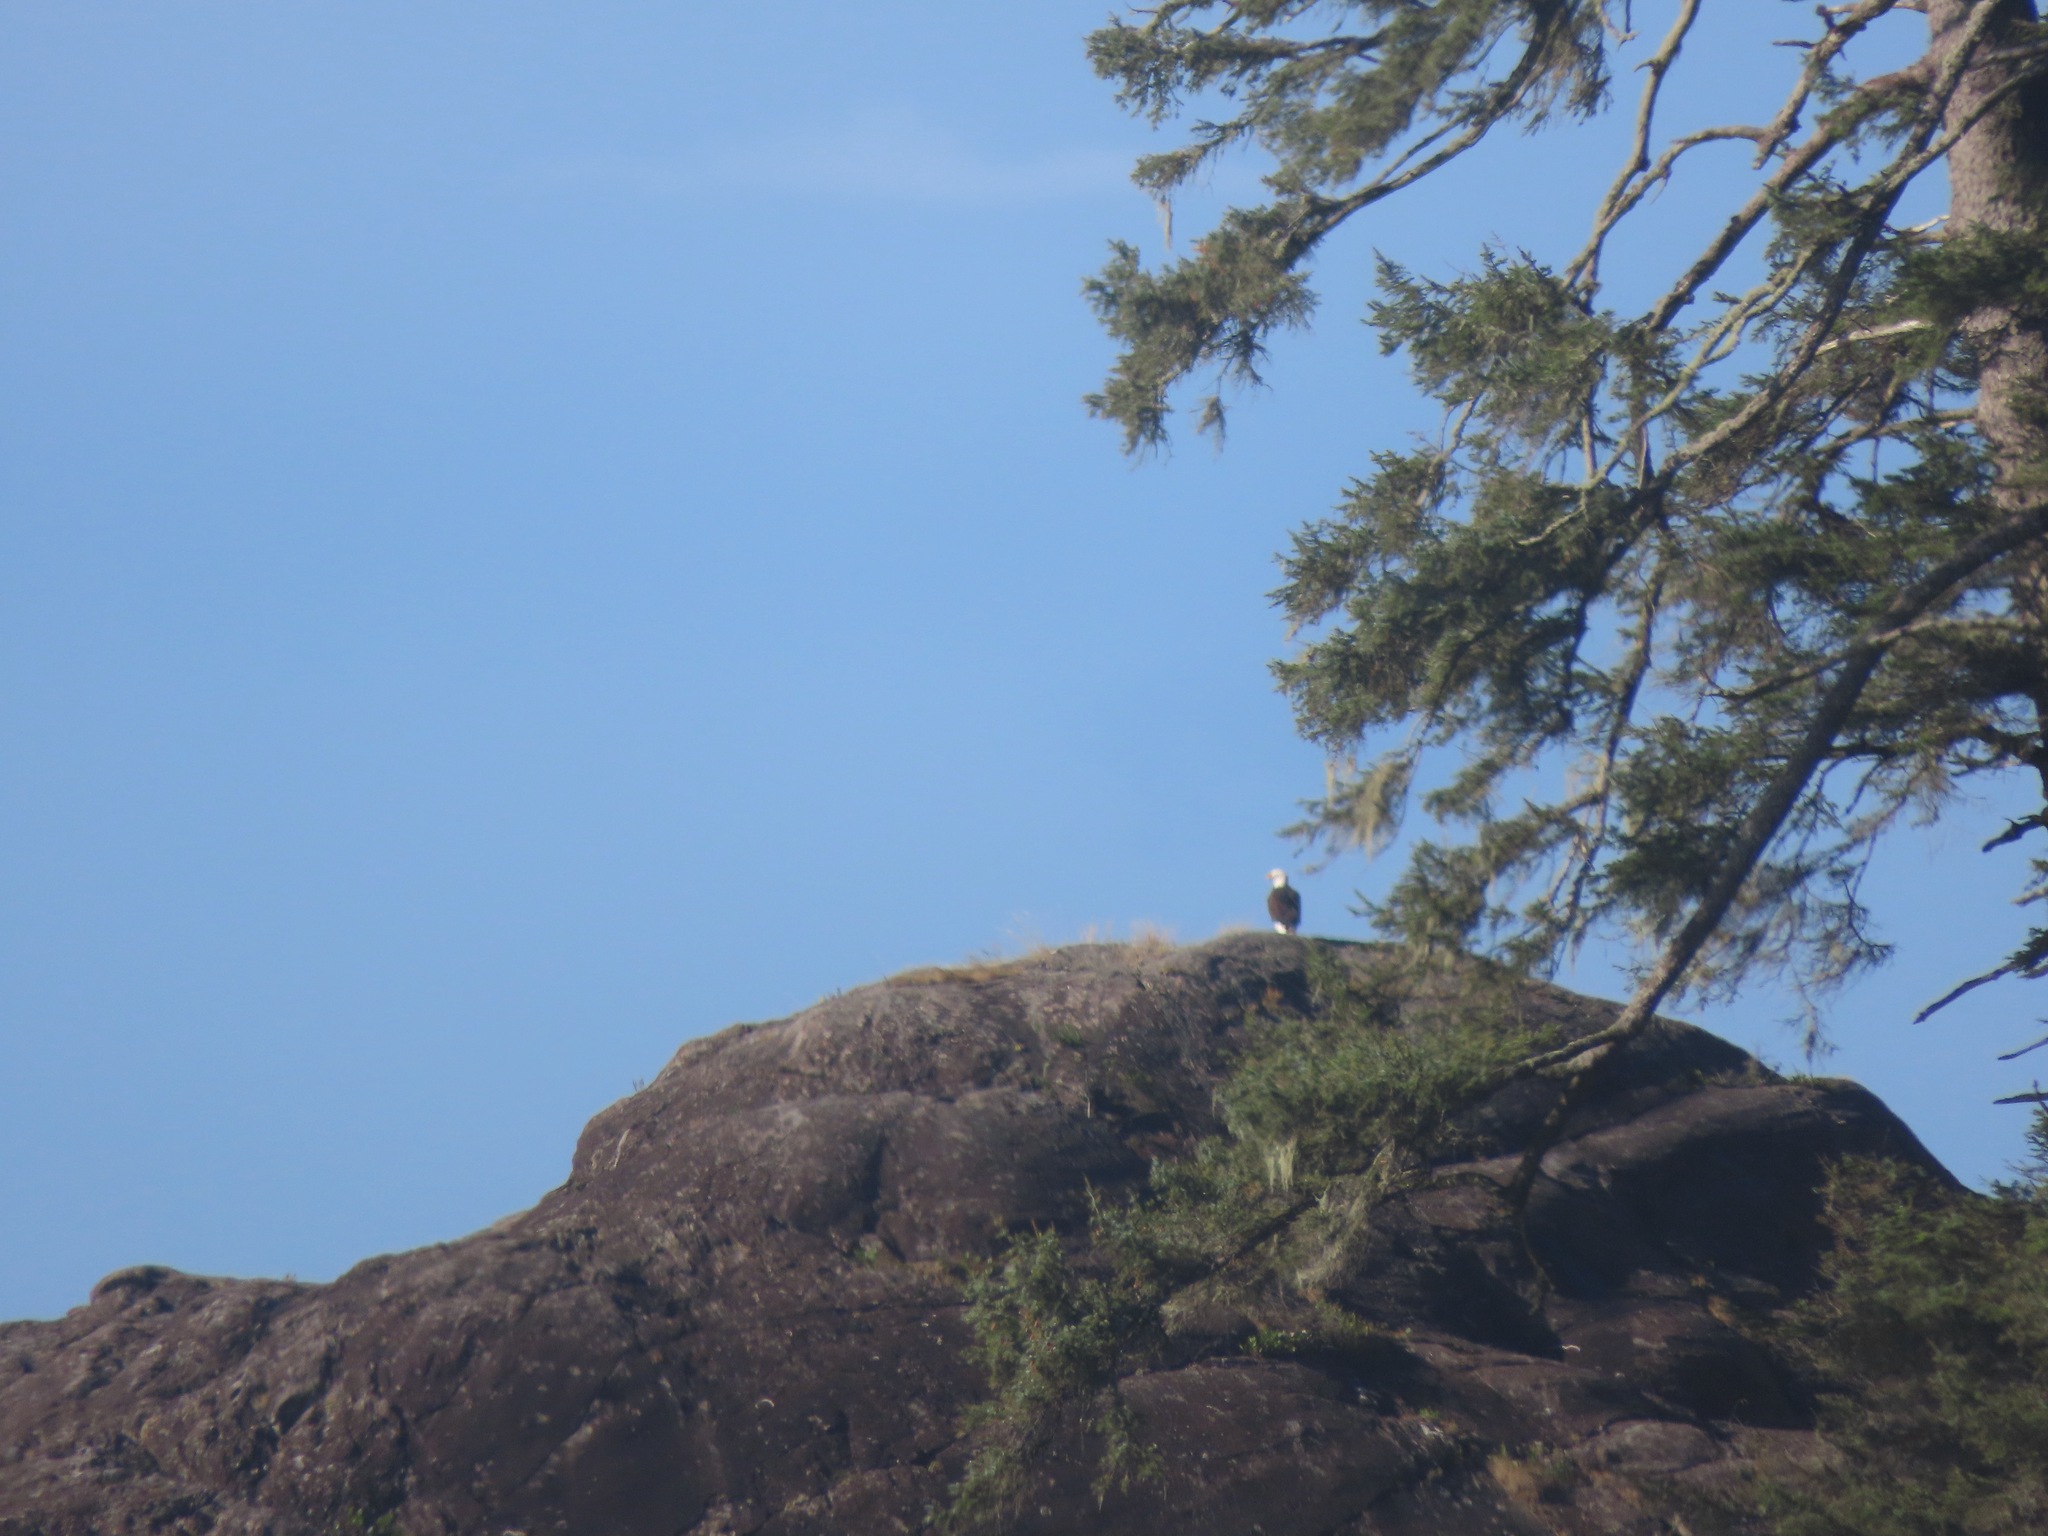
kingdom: Animalia
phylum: Chordata
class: Aves
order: Accipitriformes
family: Accipitridae
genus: Haliaeetus
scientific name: Haliaeetus leucocephalus
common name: Bald eagle
